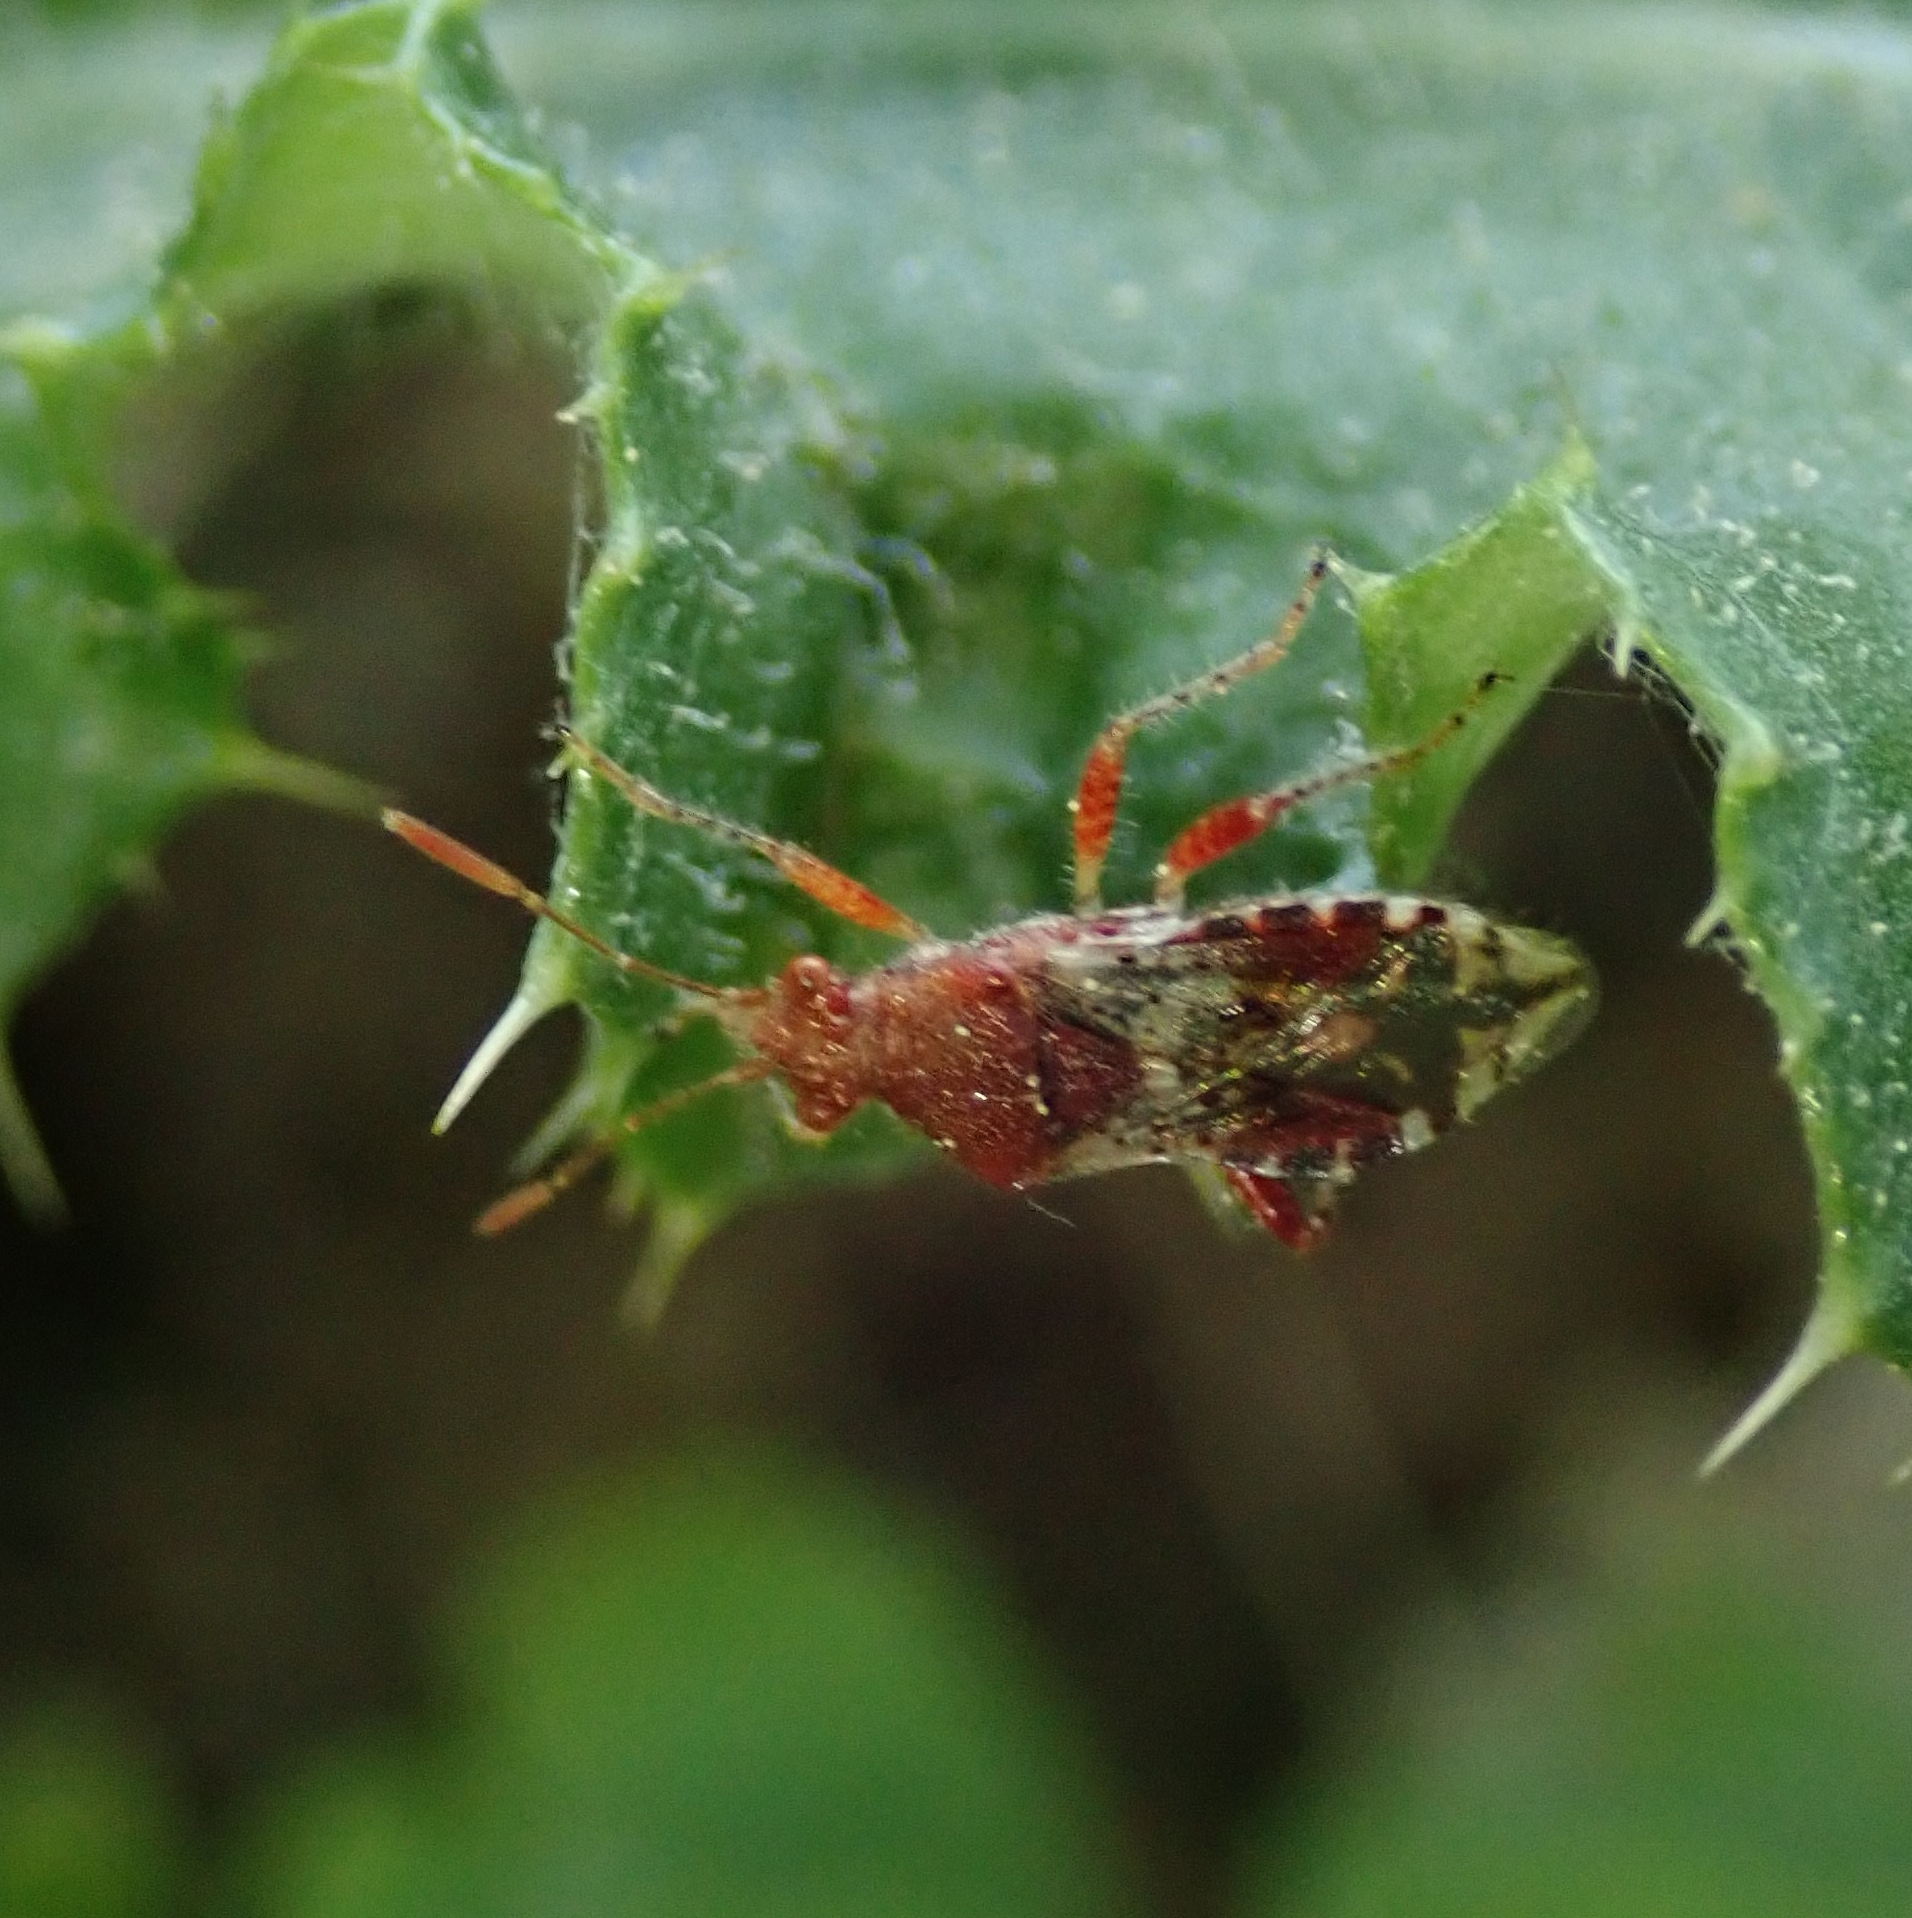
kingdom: Animalia
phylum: Arthropoda
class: Insecta
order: Hemiptera
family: Rhopalidae
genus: Rhopalus
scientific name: Rhopalus subrufus
